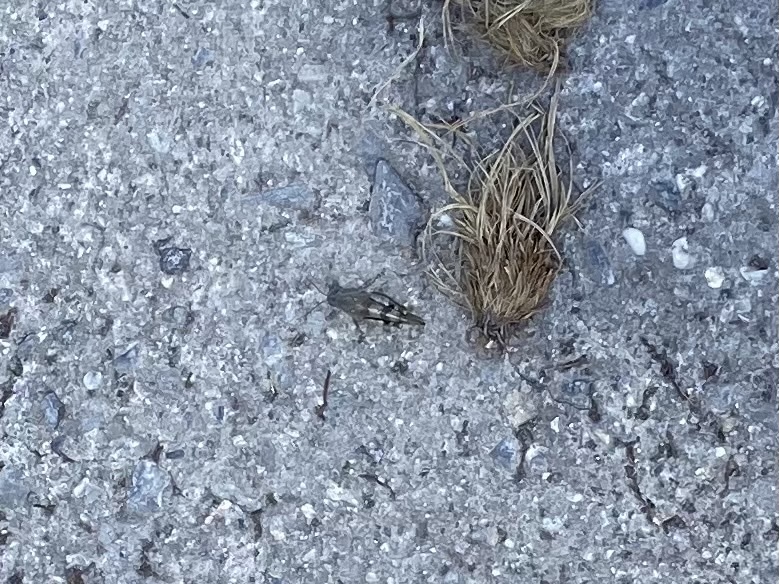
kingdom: Animalia
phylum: Arthropoda
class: Insecta
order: Orthoptera
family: Acrididae
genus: Oedipoda
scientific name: Oedipoda germanica
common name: Red band-winged grasshopper
